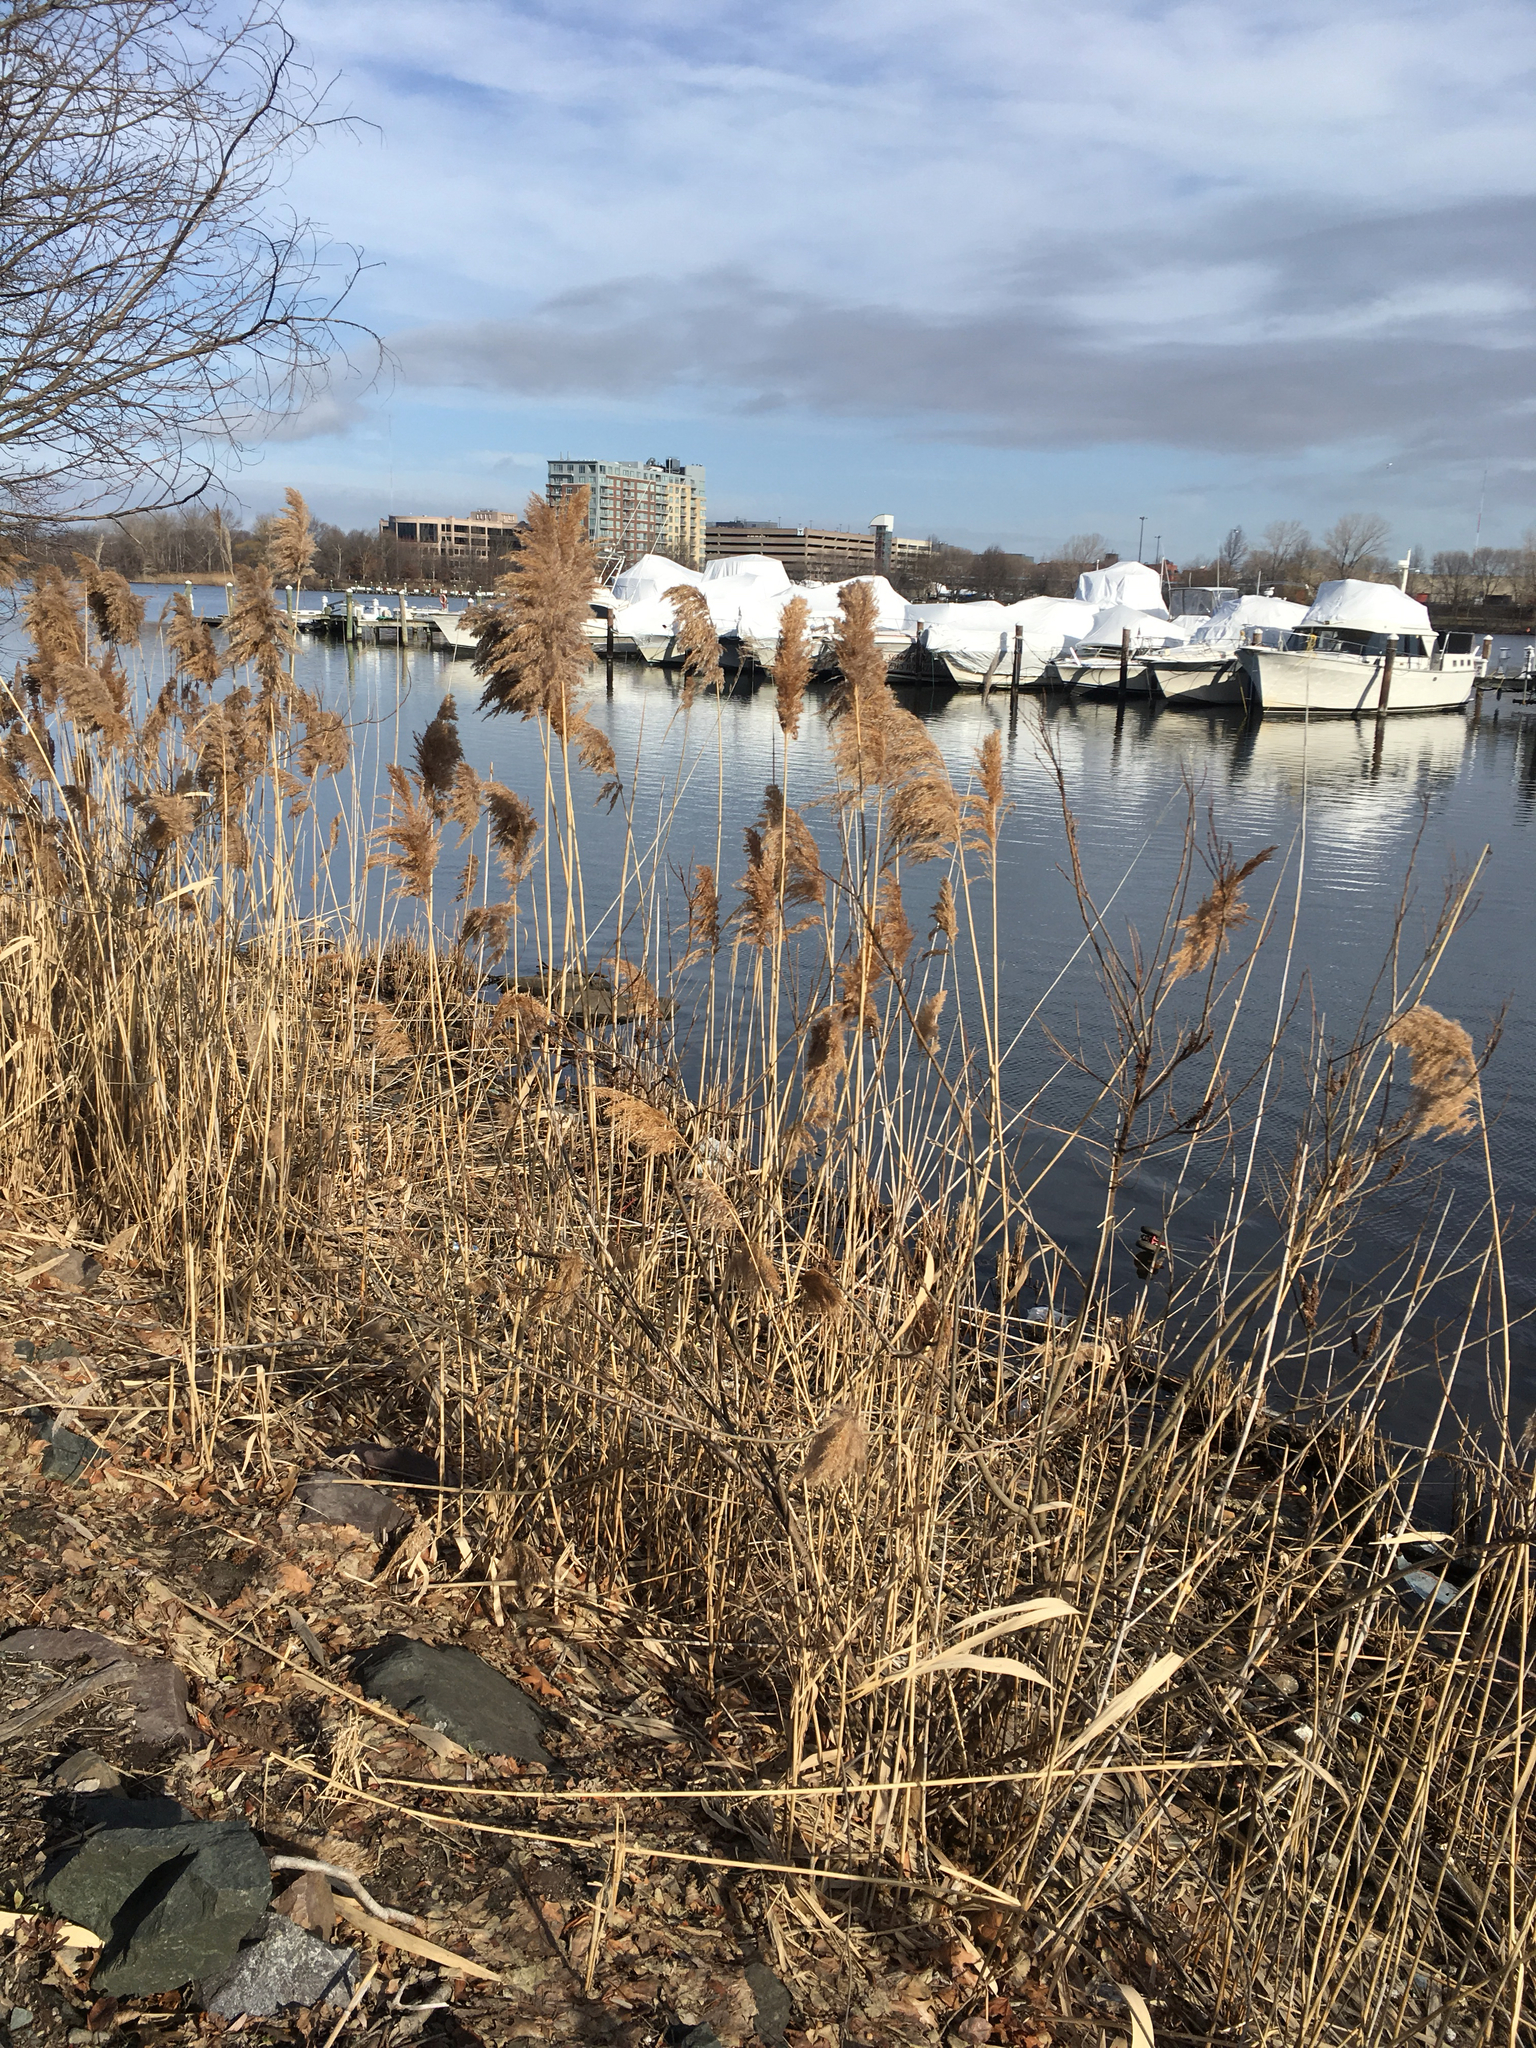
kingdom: Plantae
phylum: Tracheophyta
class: Liliopsida
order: Poales
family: Poaceae
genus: Phragmites
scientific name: Phragmites australis
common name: Common reed
